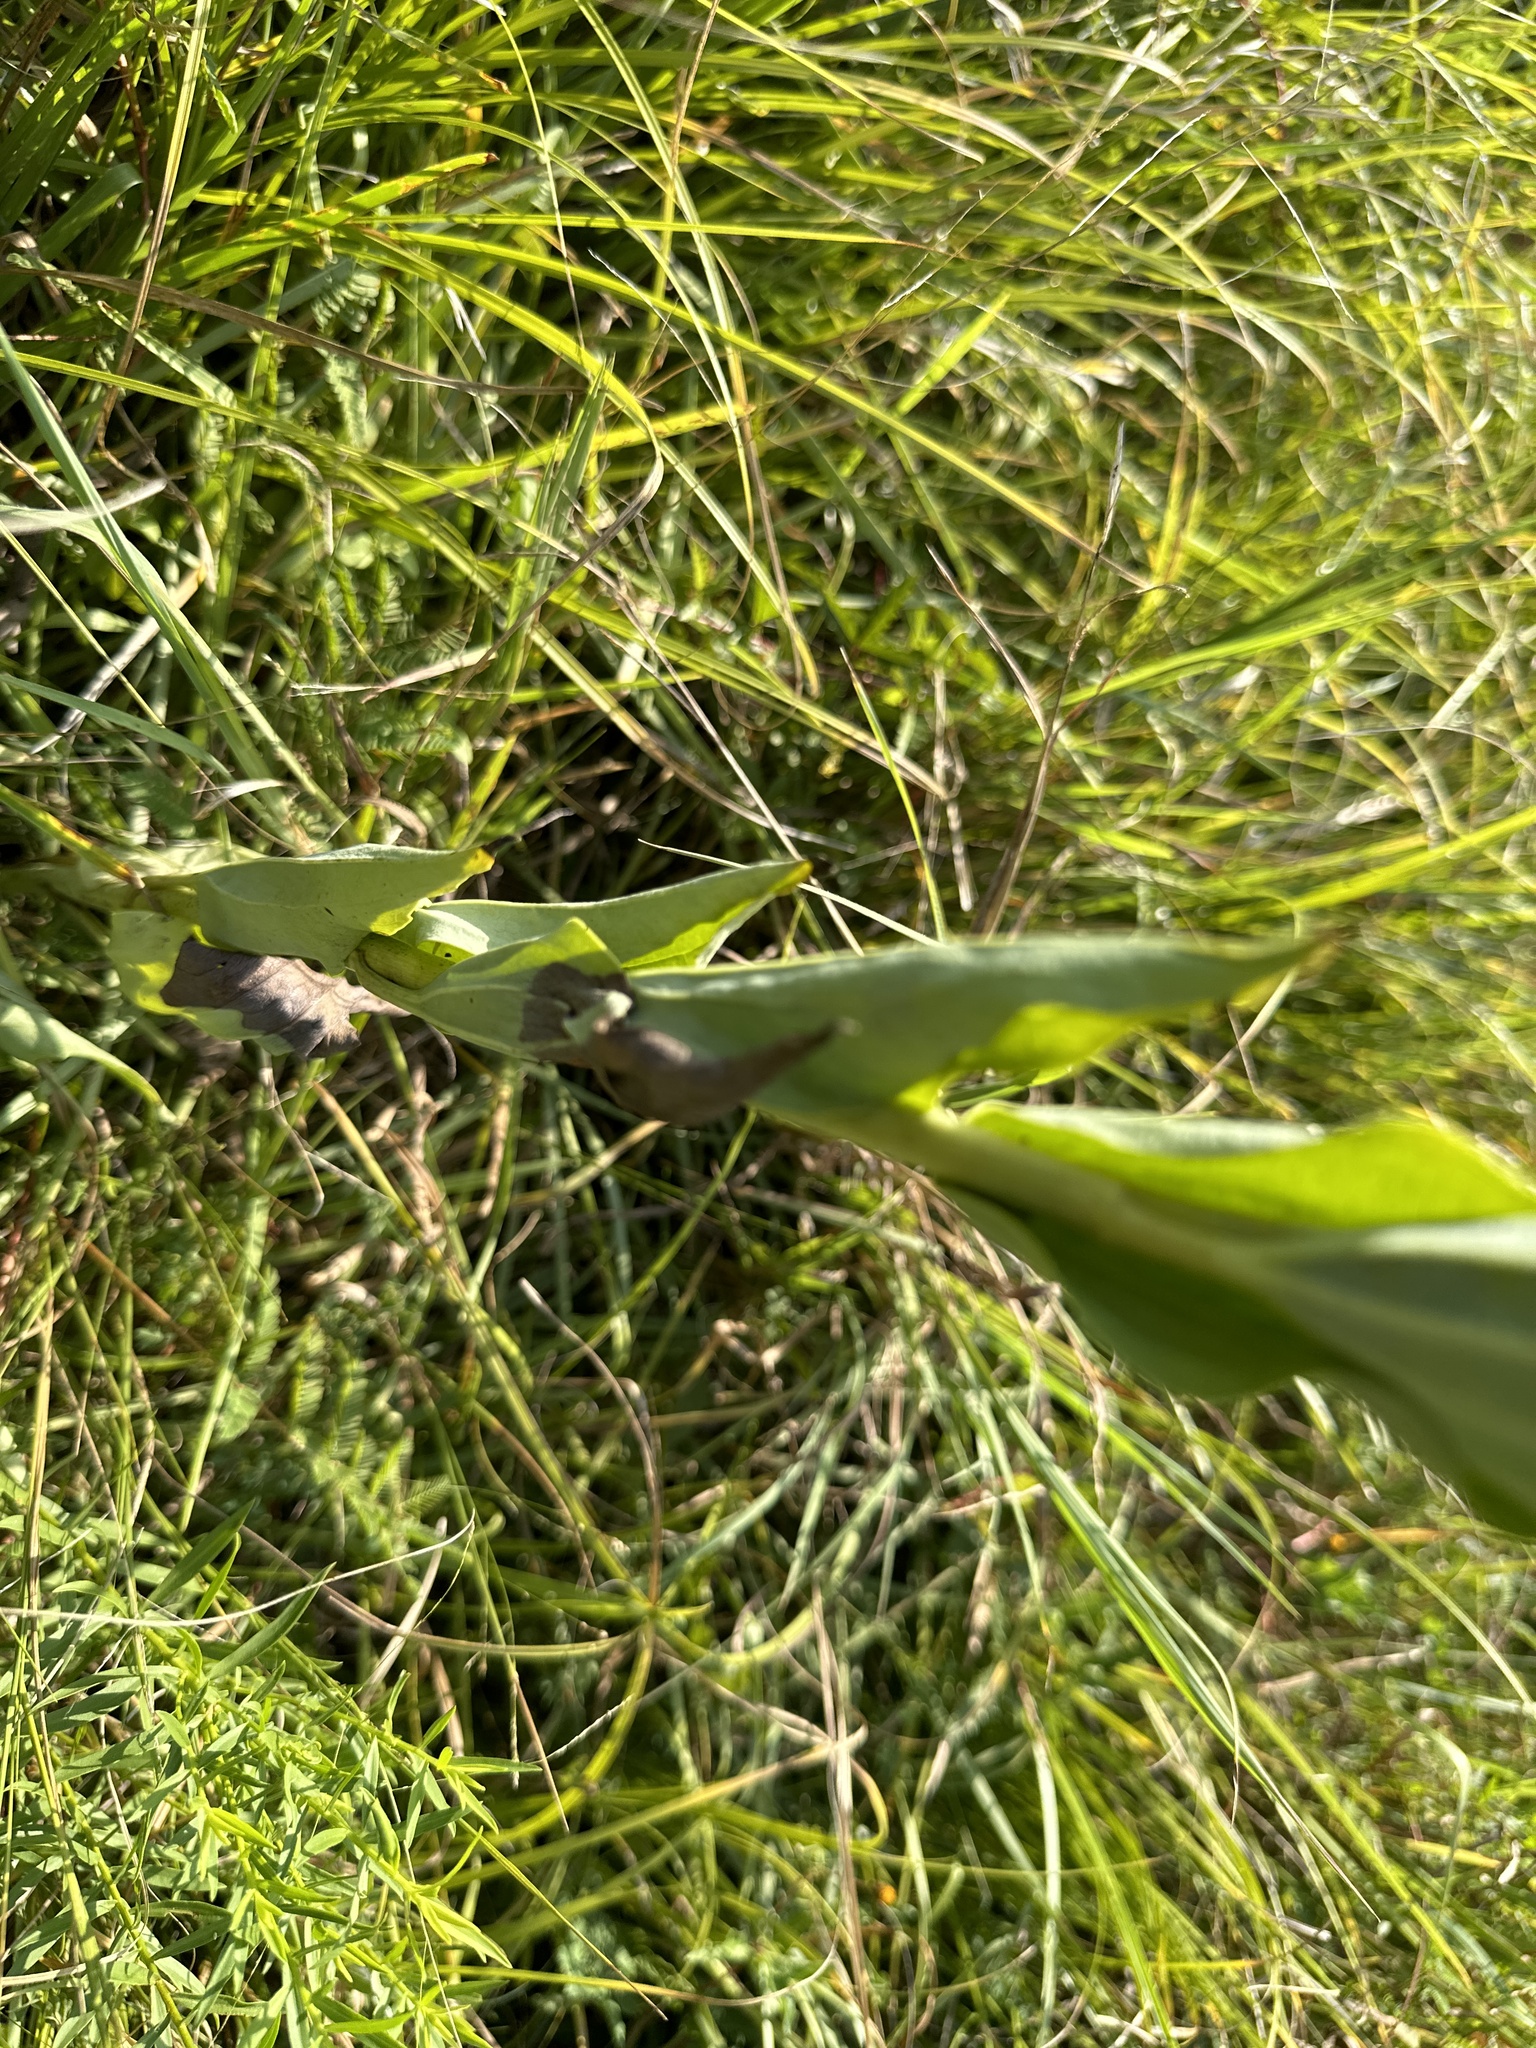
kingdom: Plantae
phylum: Tracheophyta
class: Magnoliopsida
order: Asterales
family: Asteraceae
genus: Arnoglossum
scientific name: Arnoglossum ovatum
